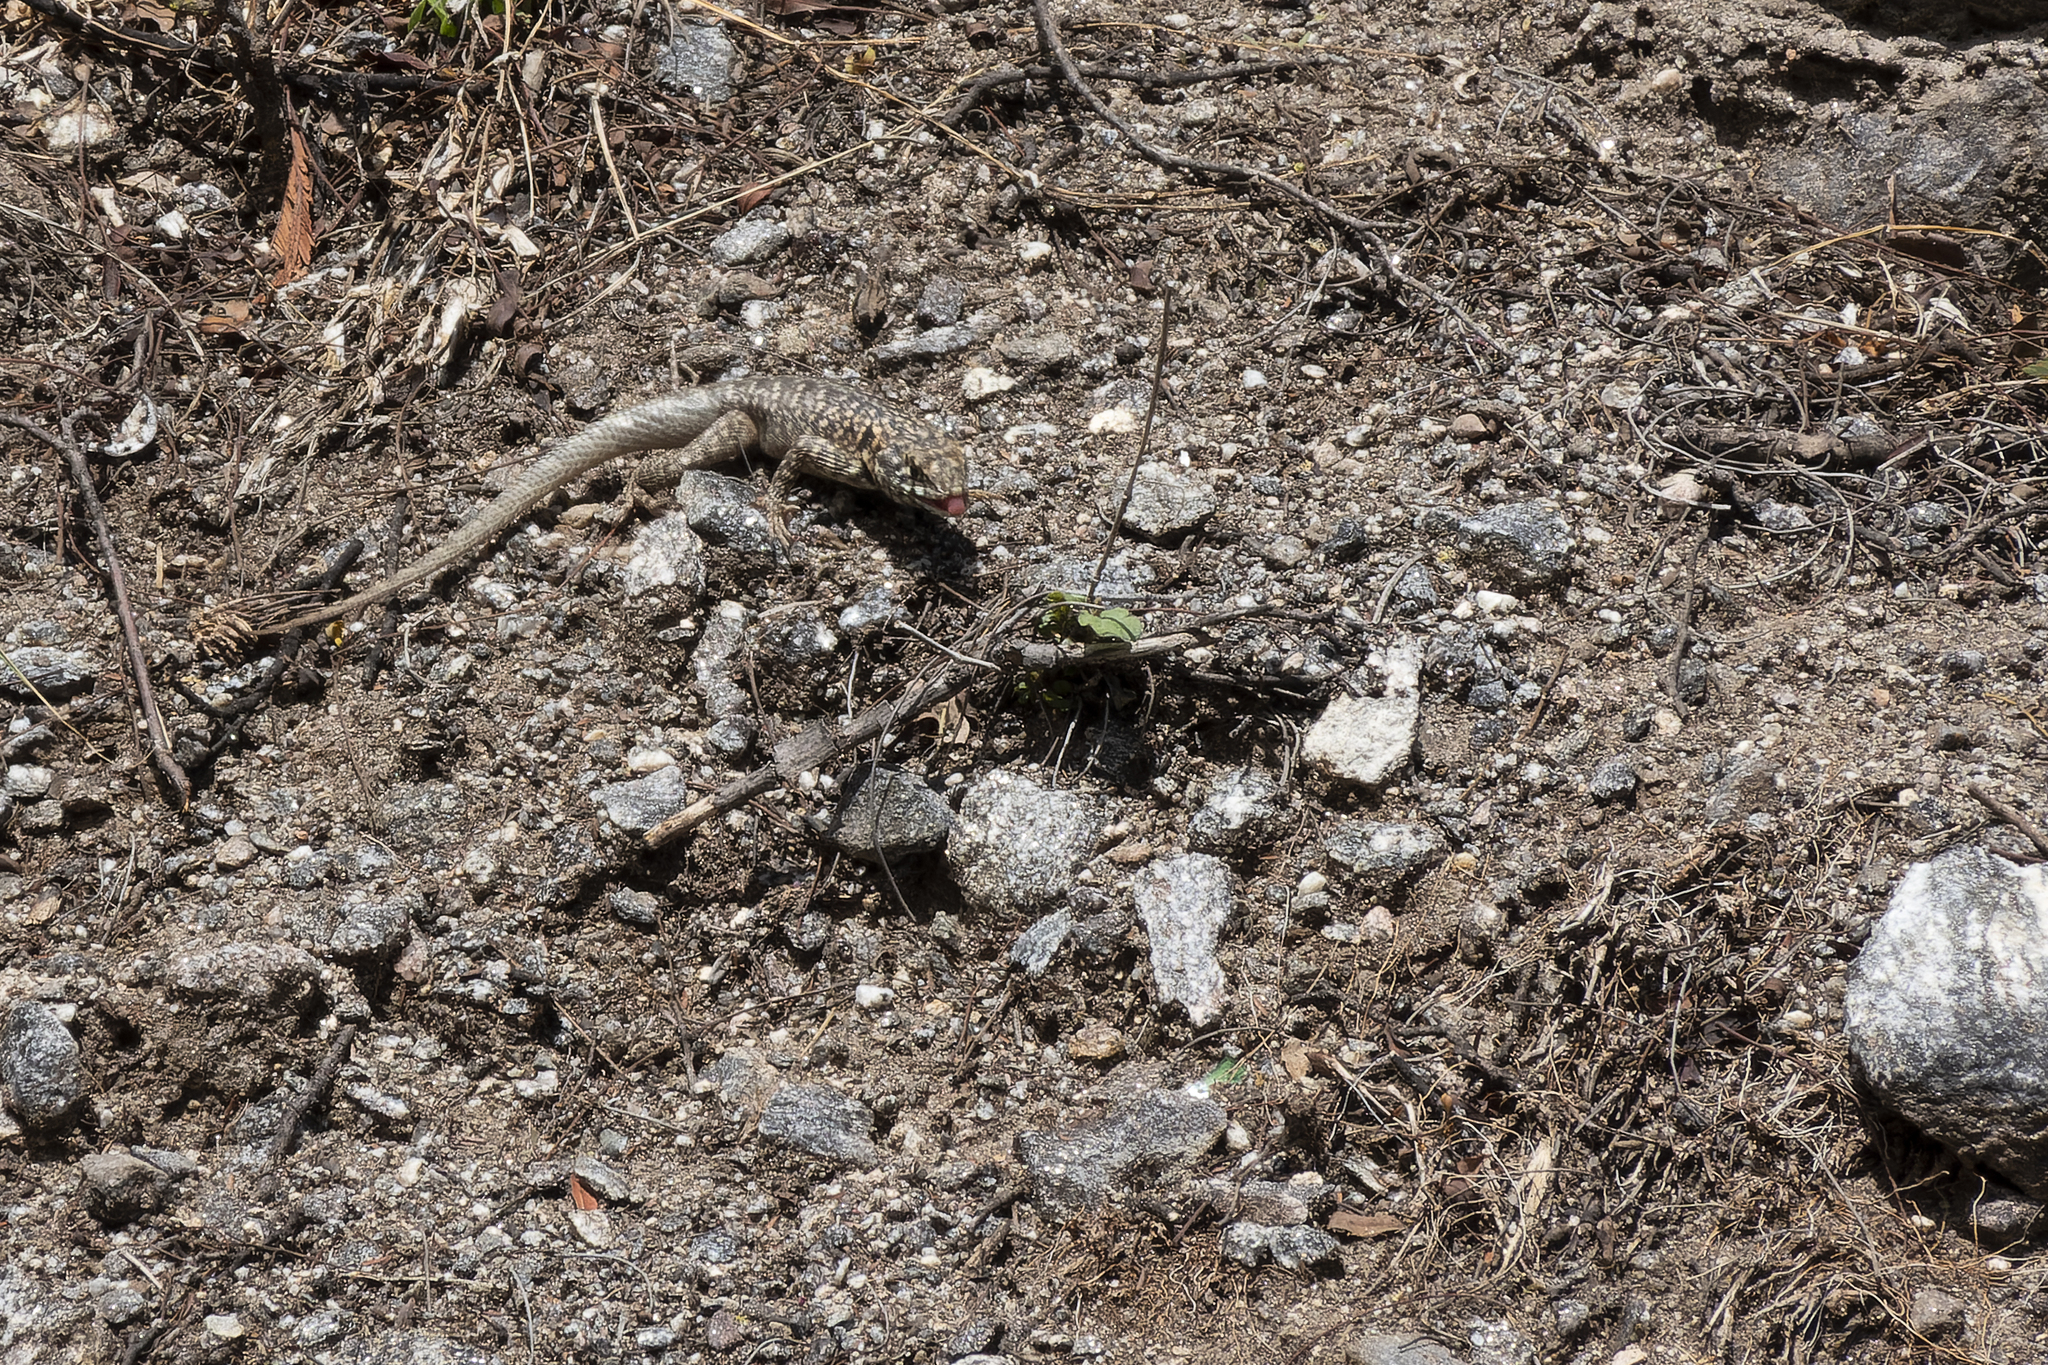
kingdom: Animalia
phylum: Chordata
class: Squamata
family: Tropiduridae
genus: Tropidurus
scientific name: Tropidurus etheridgei
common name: Etheridge's lava lizard
